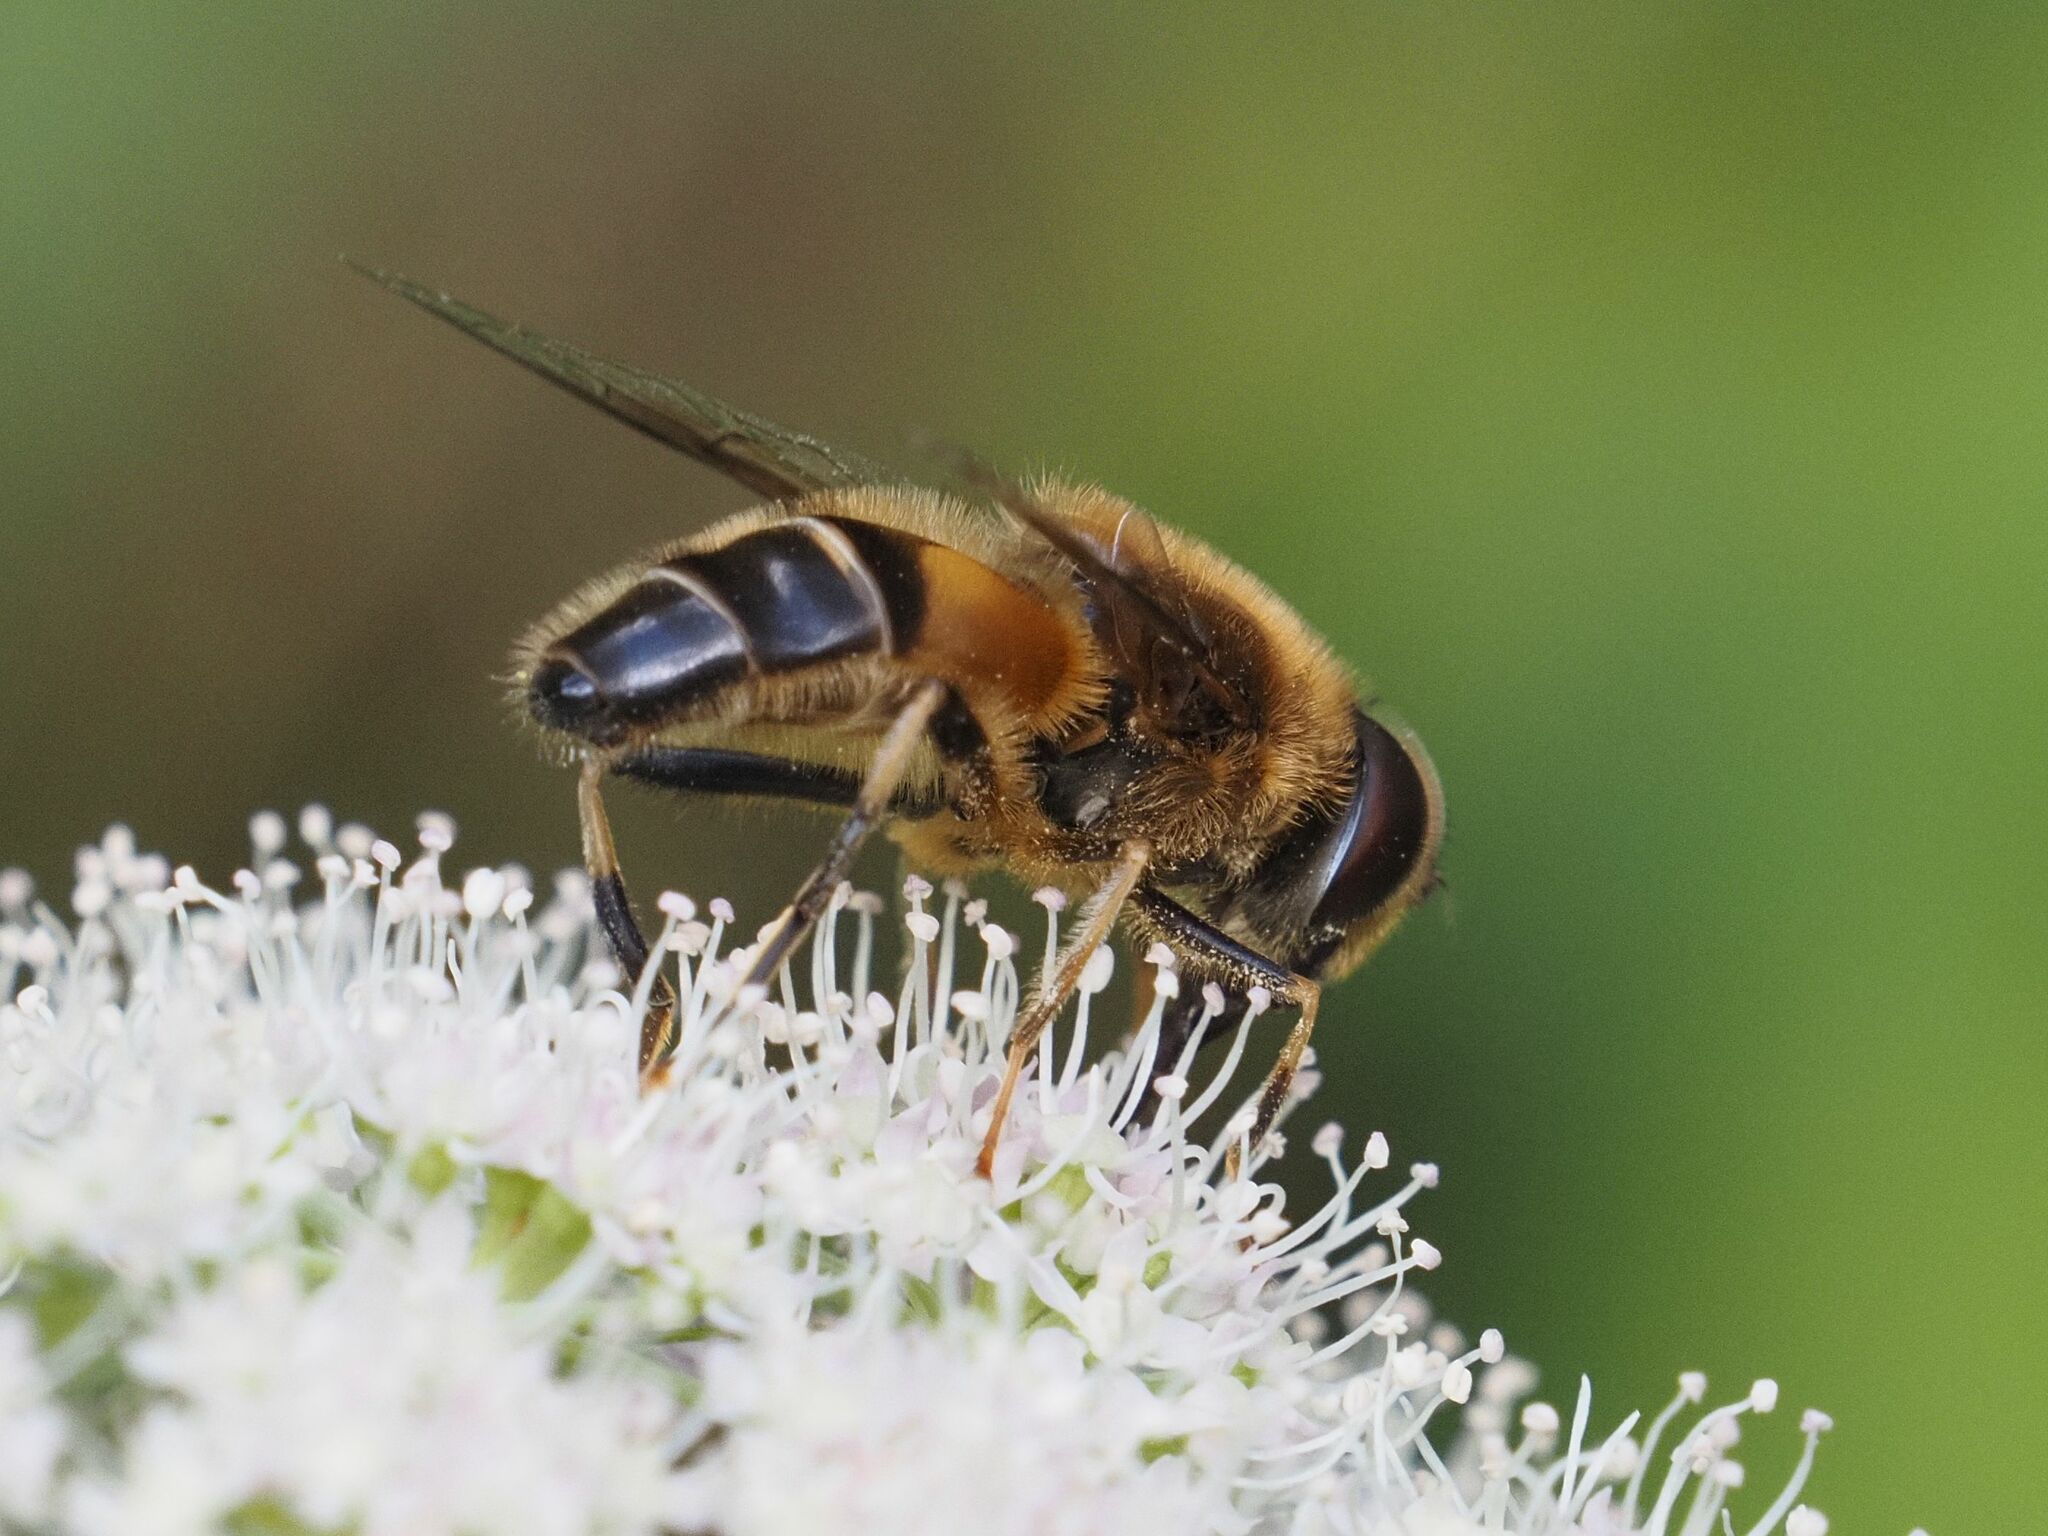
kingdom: Animalia
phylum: Arthropoda
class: Insecta
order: Diptera
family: Syrphidae
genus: Eristalis
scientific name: Eristalis pertinax
